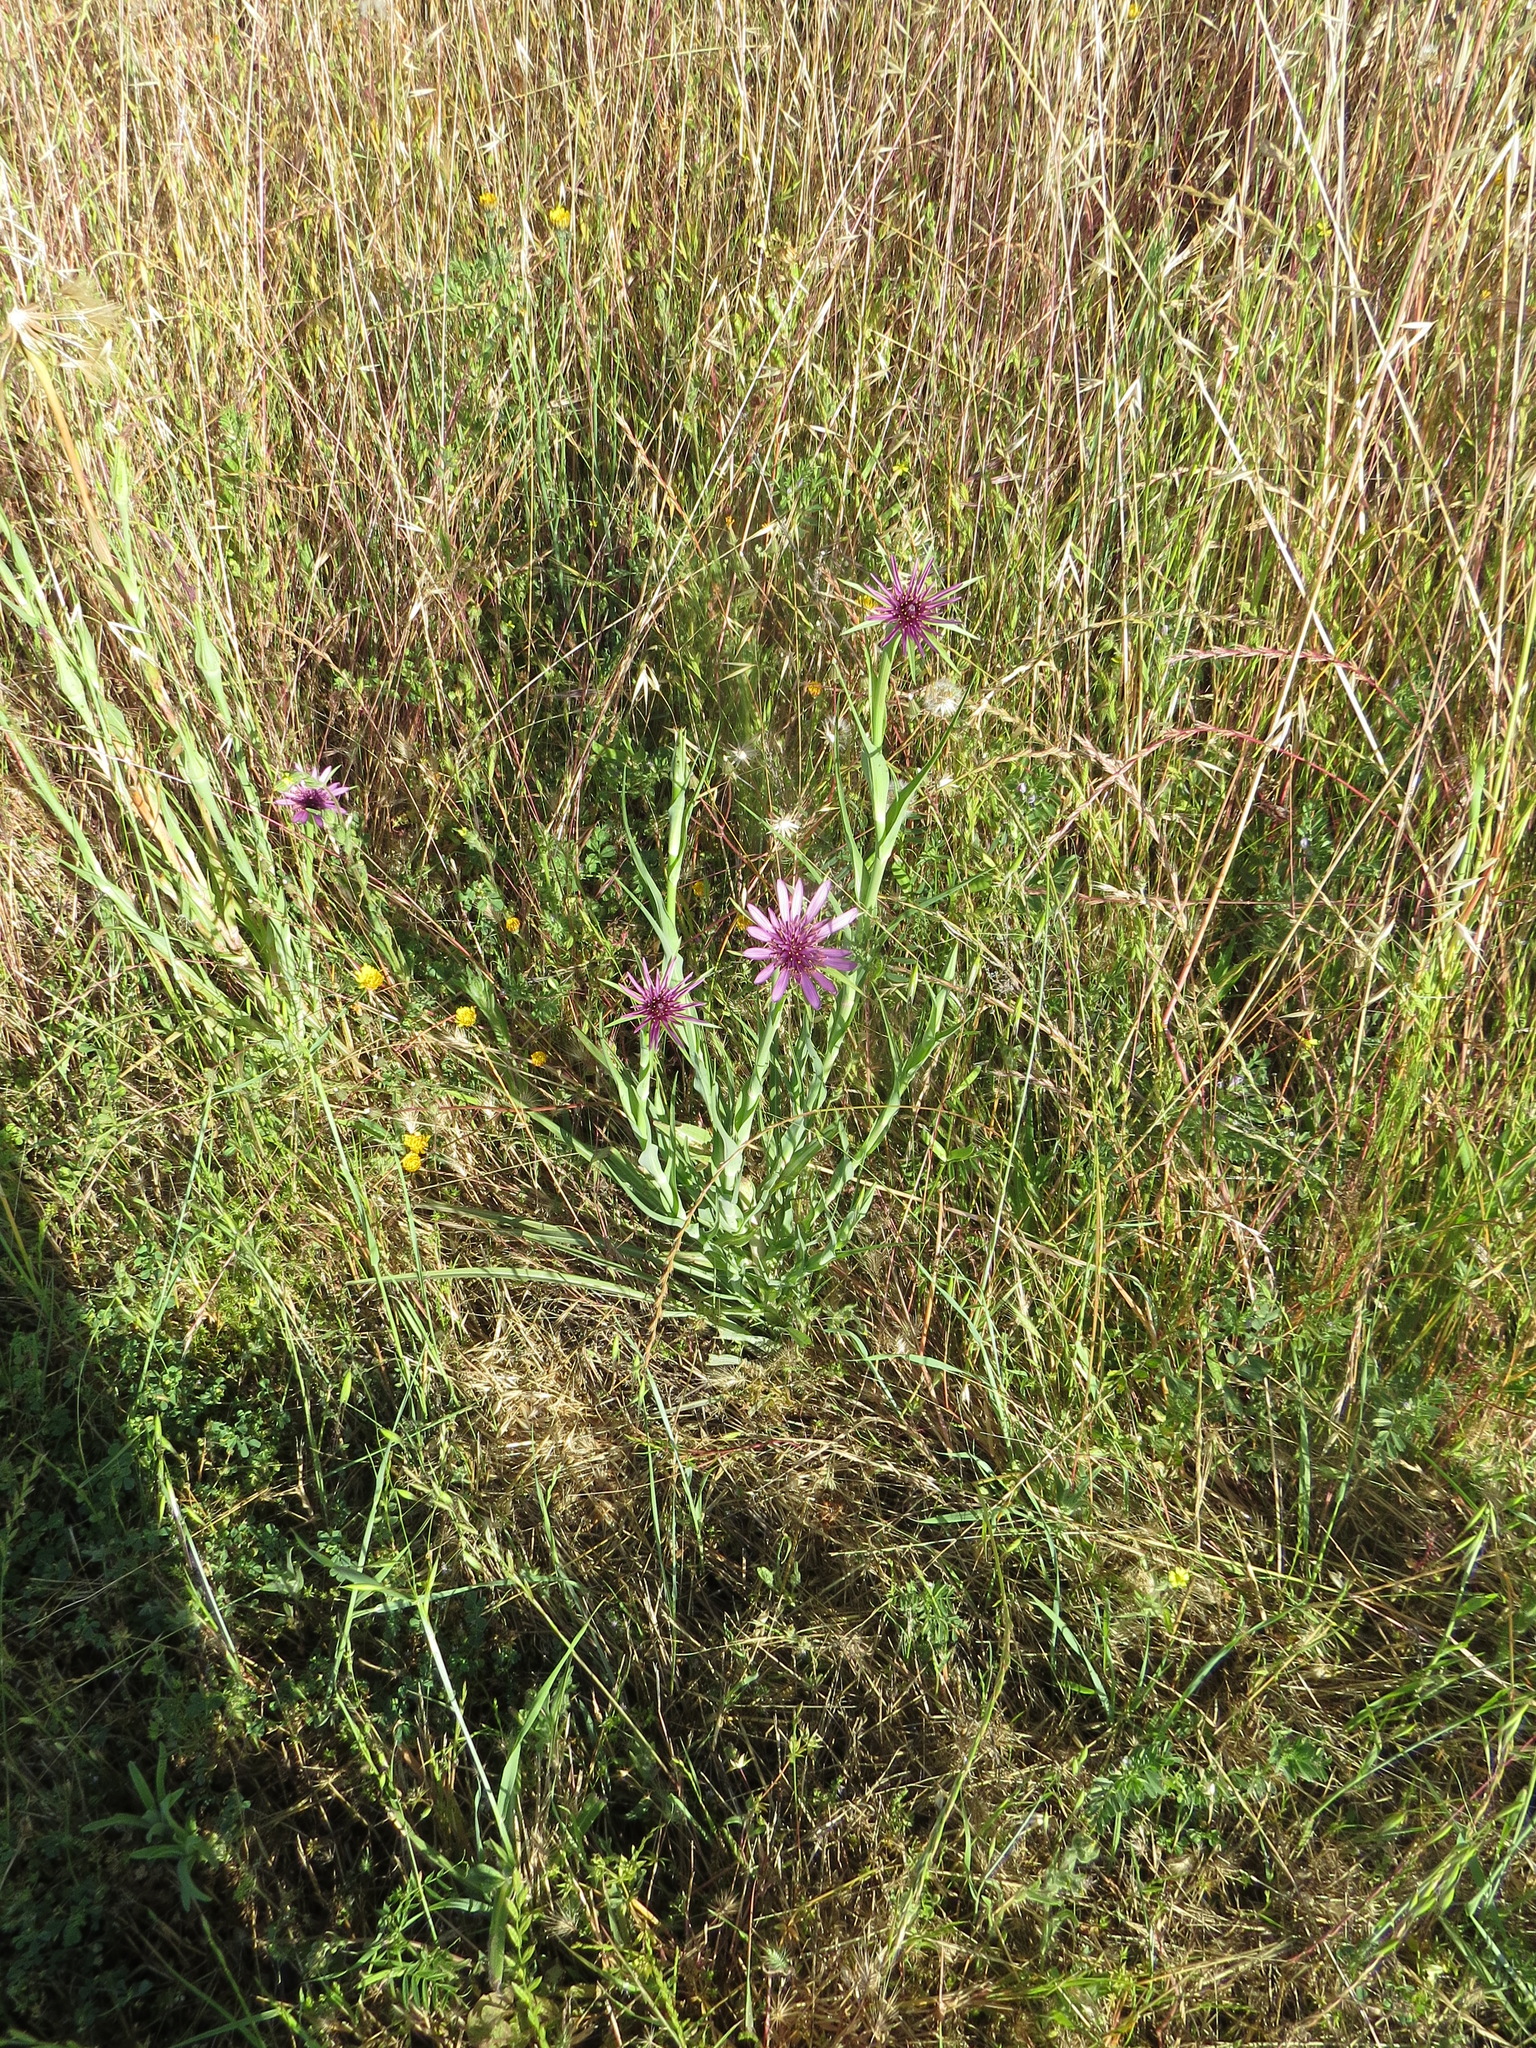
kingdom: Plantae
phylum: Tracheophyta
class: Magnoliopsida
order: Asterales
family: Asteraceae
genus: Tragopogon
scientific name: Tragopogon porrifolius
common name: Salsify
